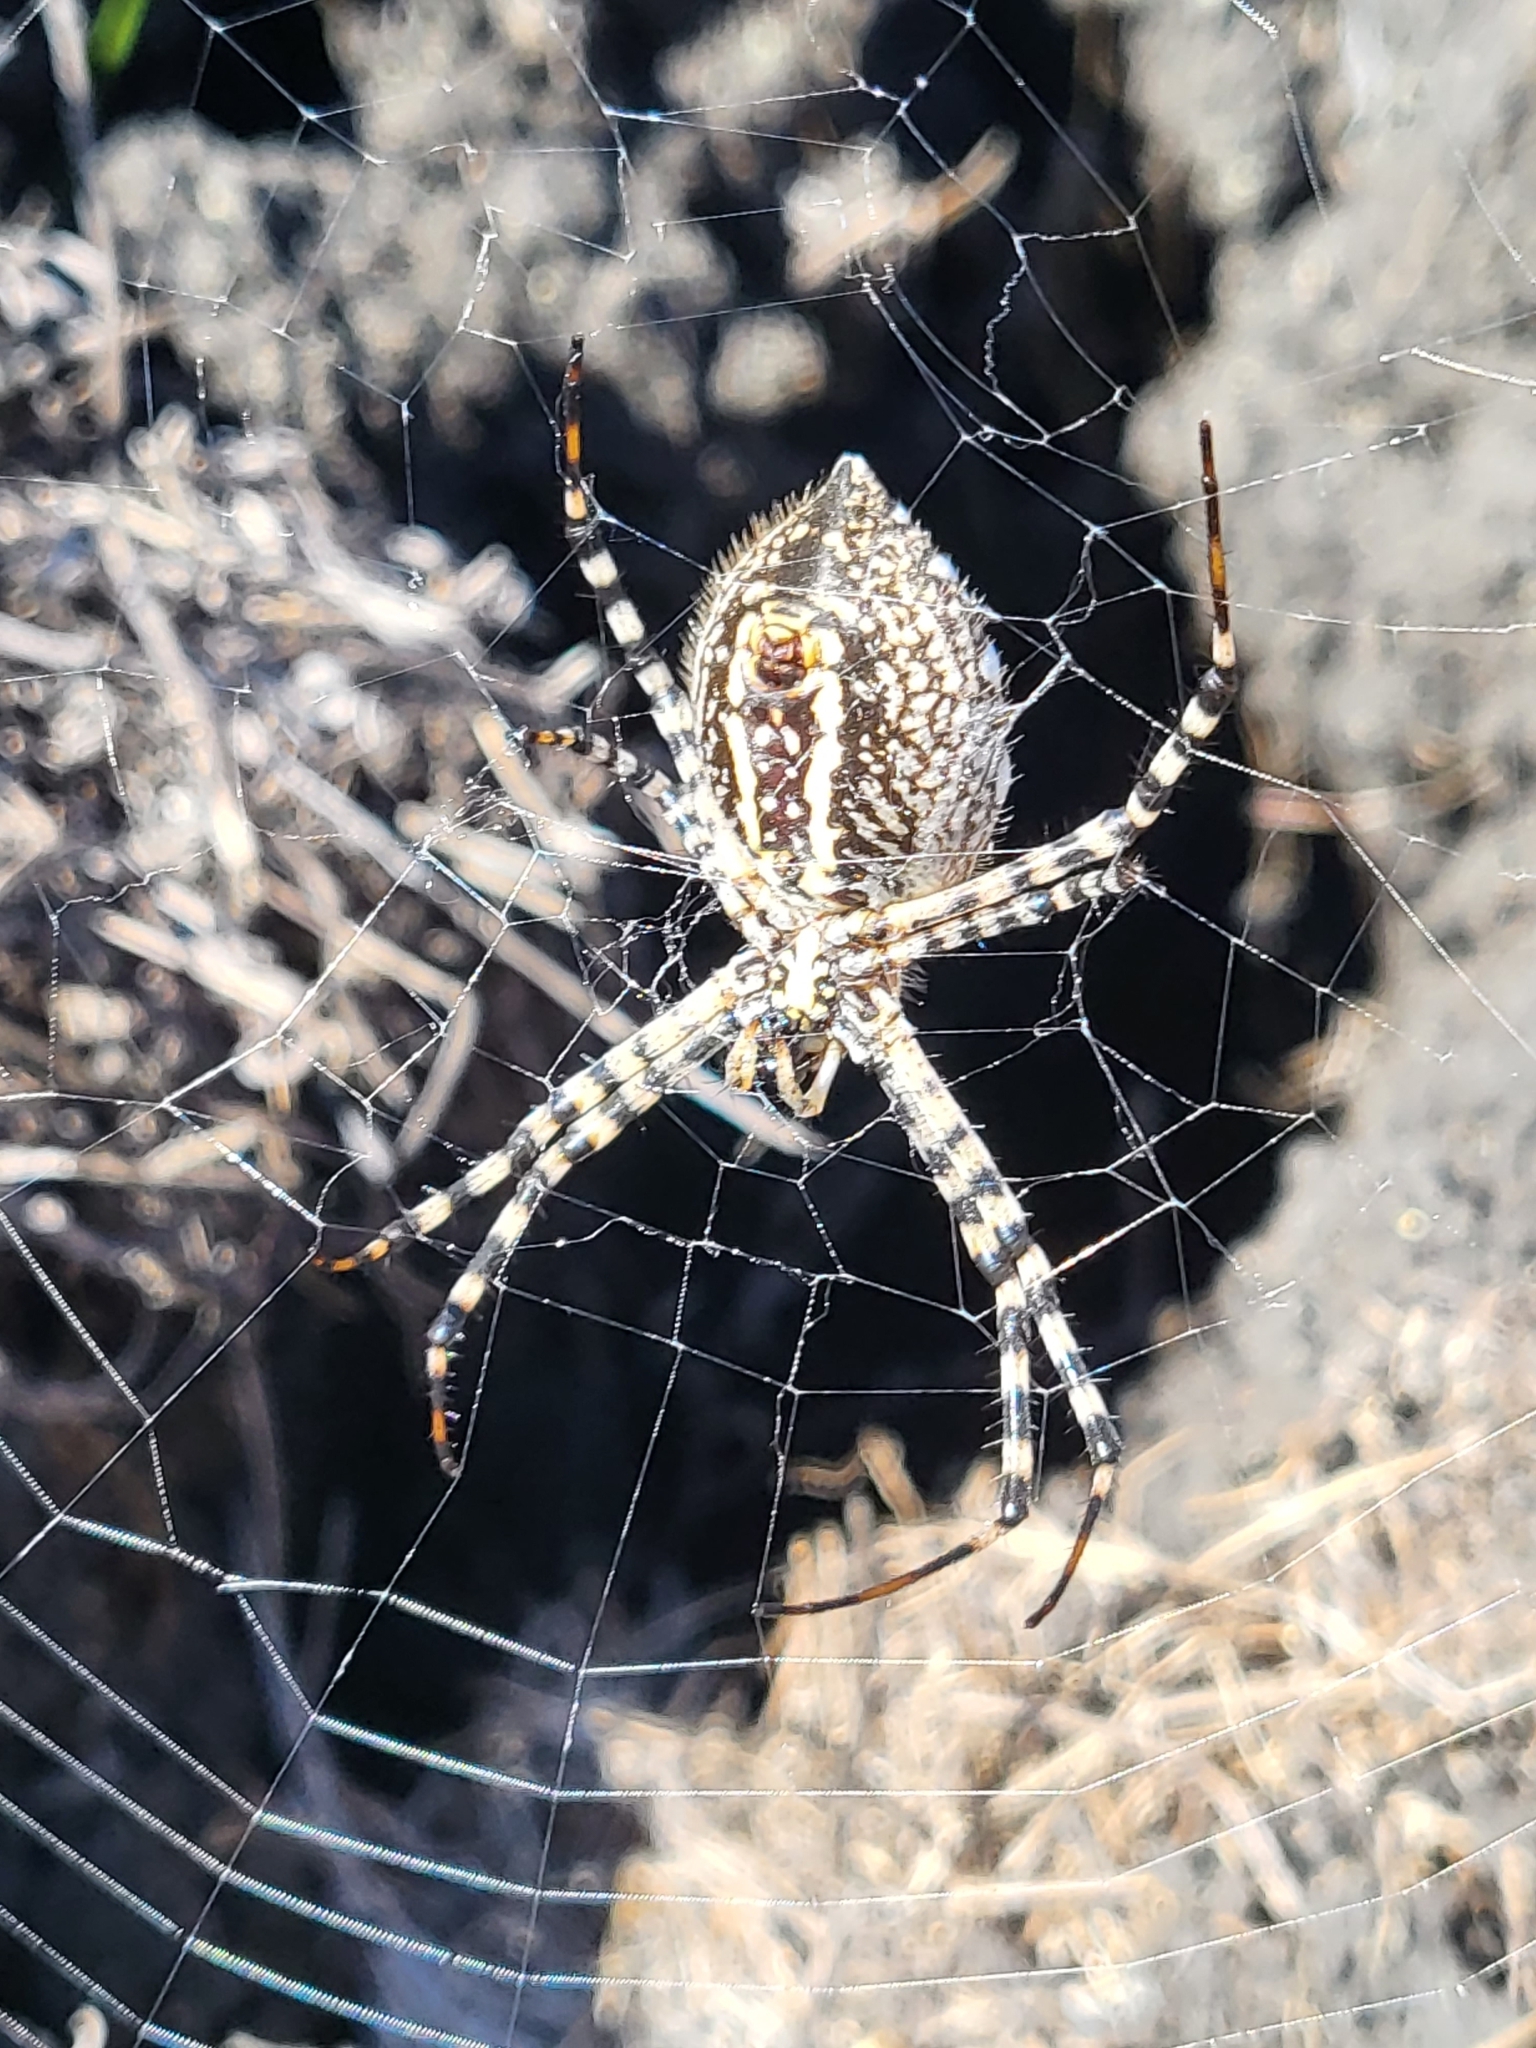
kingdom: Animalia
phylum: Arthropoda
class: Arachnida
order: Araneae
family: Araneidae
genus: Argiope
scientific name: Argiope trifasciata
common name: Banded garden spider
